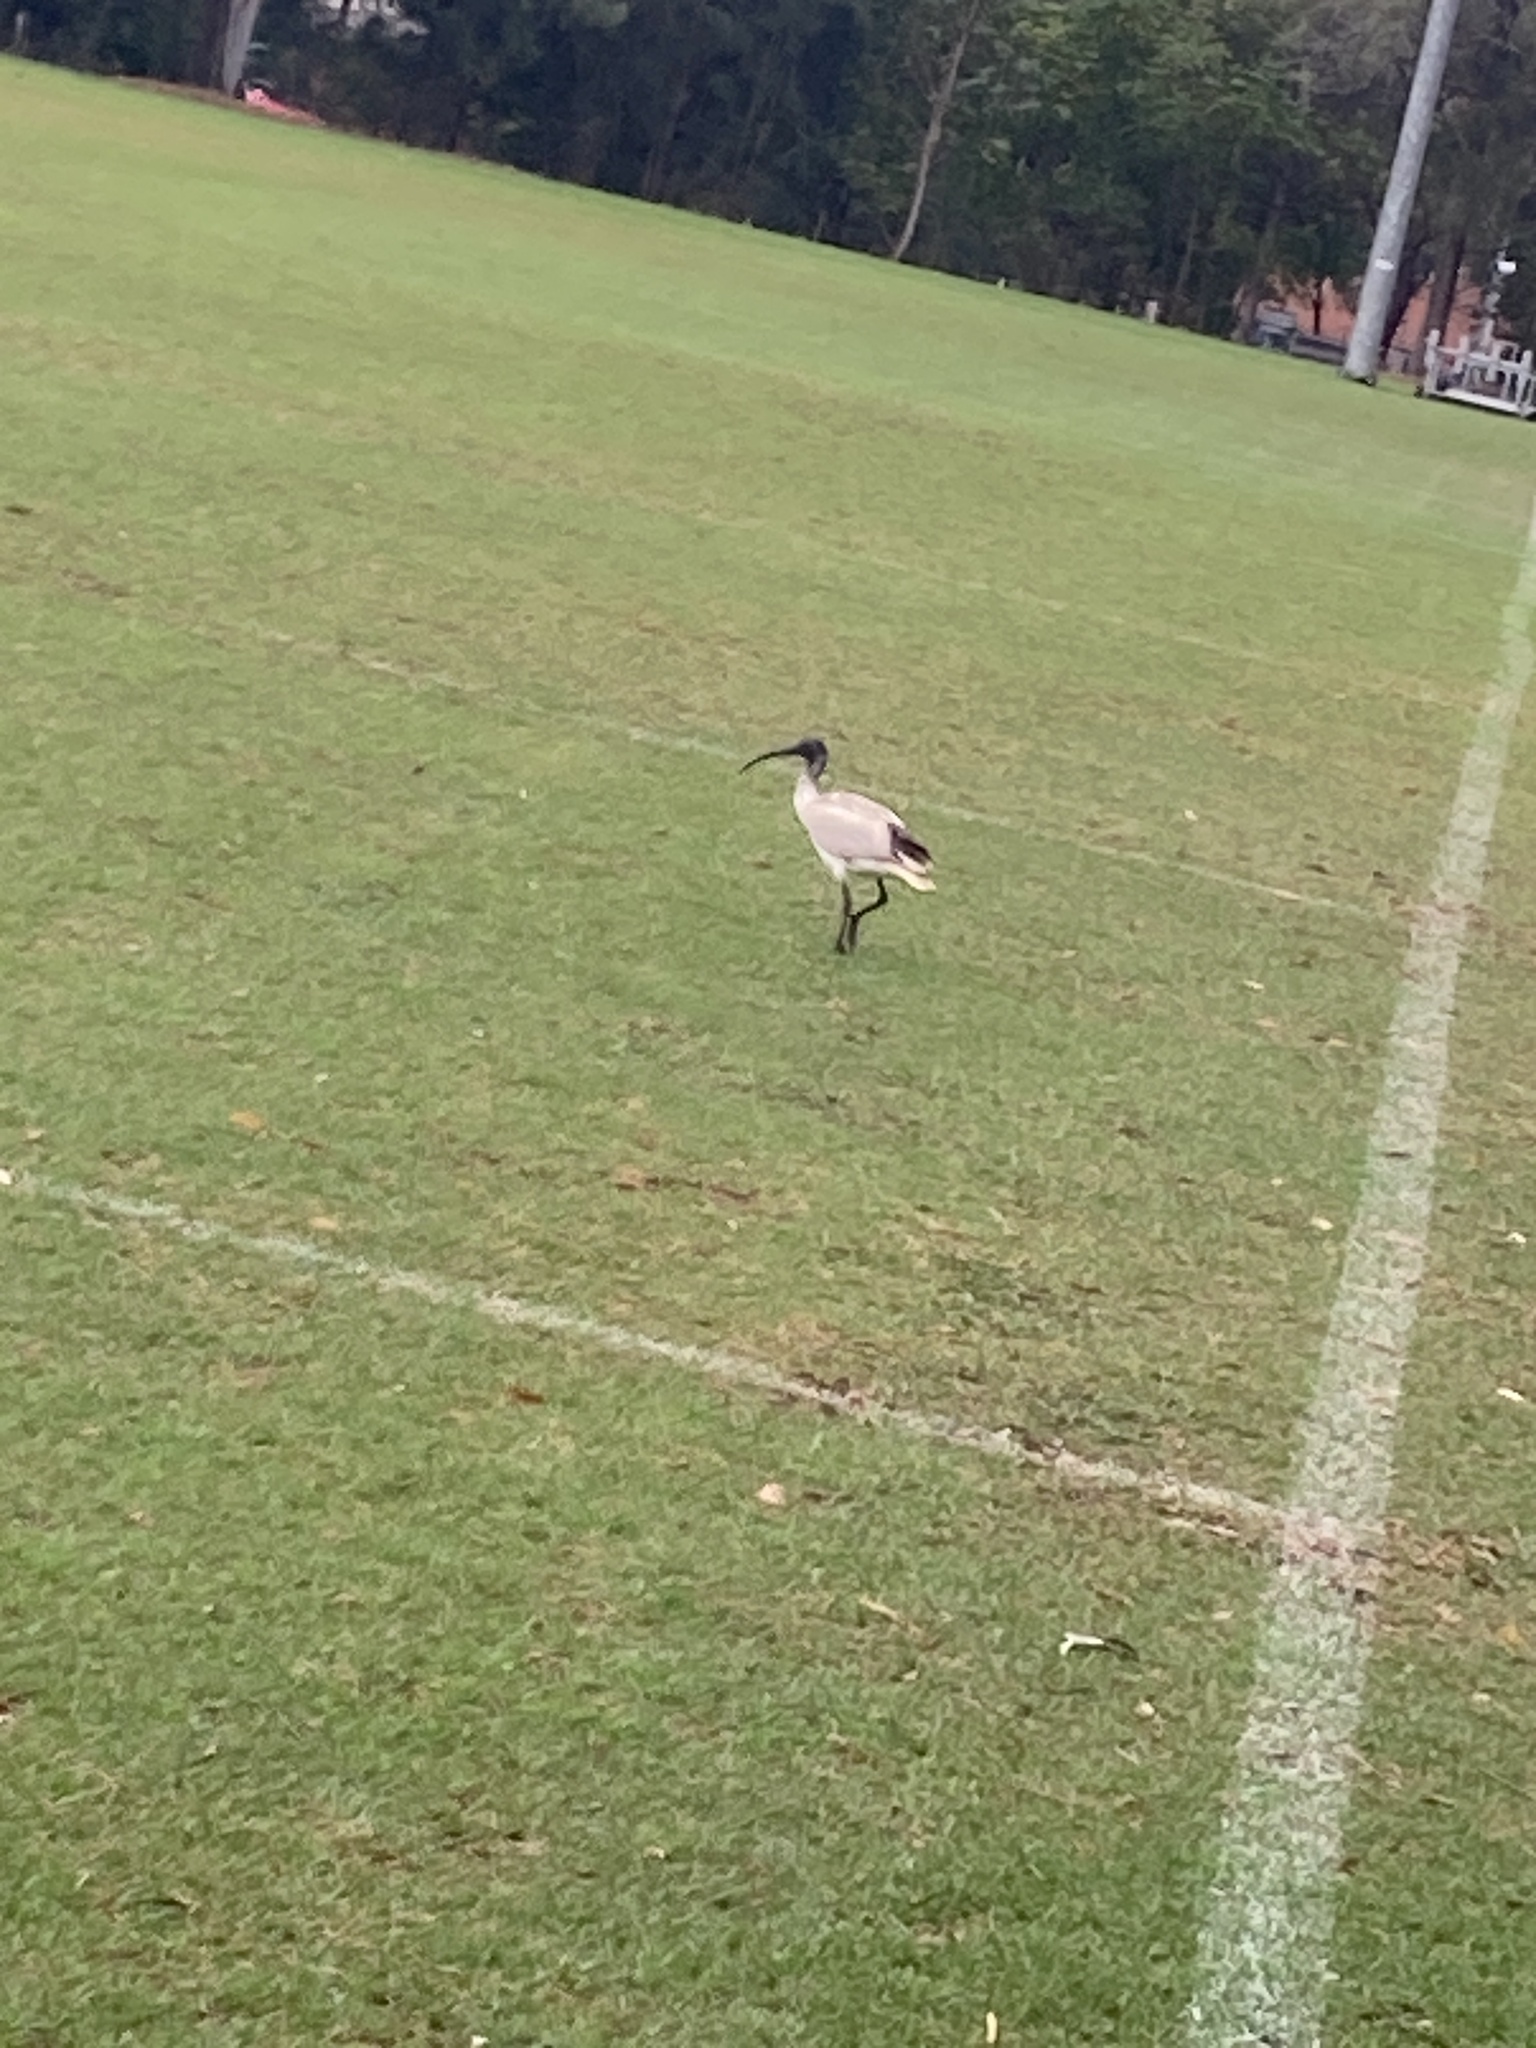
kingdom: Animalia
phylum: Chordata
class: Aves
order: Pelecaniformes
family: Threskiornithidae
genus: Threskiornis
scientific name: Threskiornis molucca
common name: Australian white ibis
